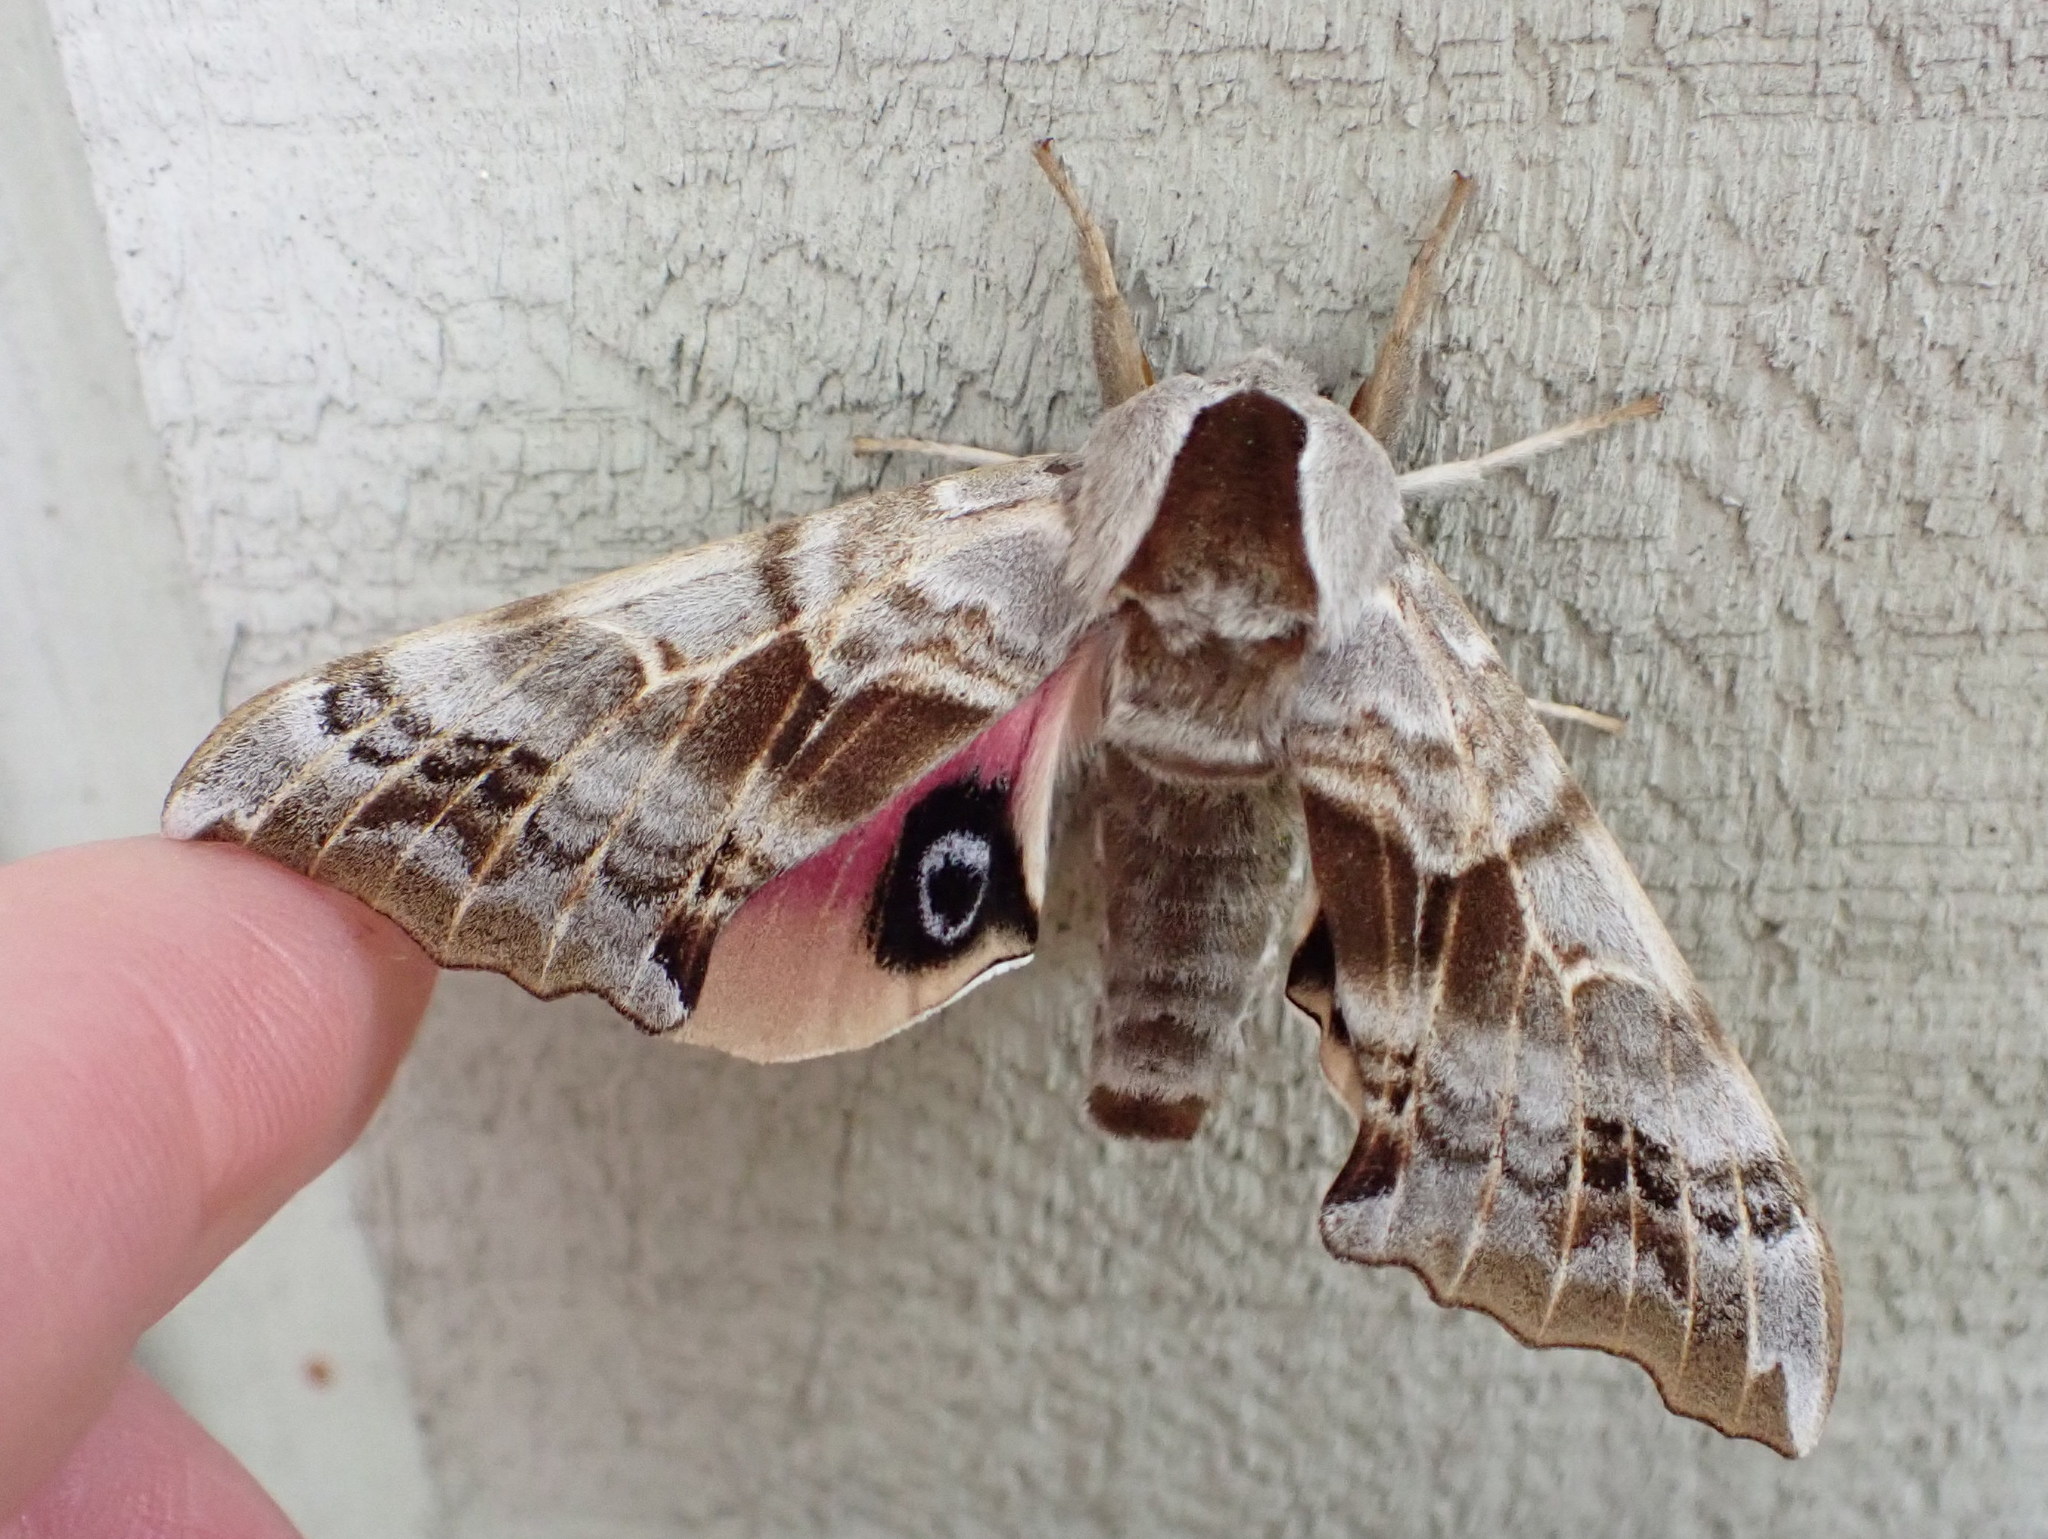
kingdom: Animalia
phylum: Arthropoda
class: Insecta
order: Lepidoptera
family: Sphingidae
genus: Smerinthus
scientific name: Smerinthus cerisyi
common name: Cerisy's sphinx moth
